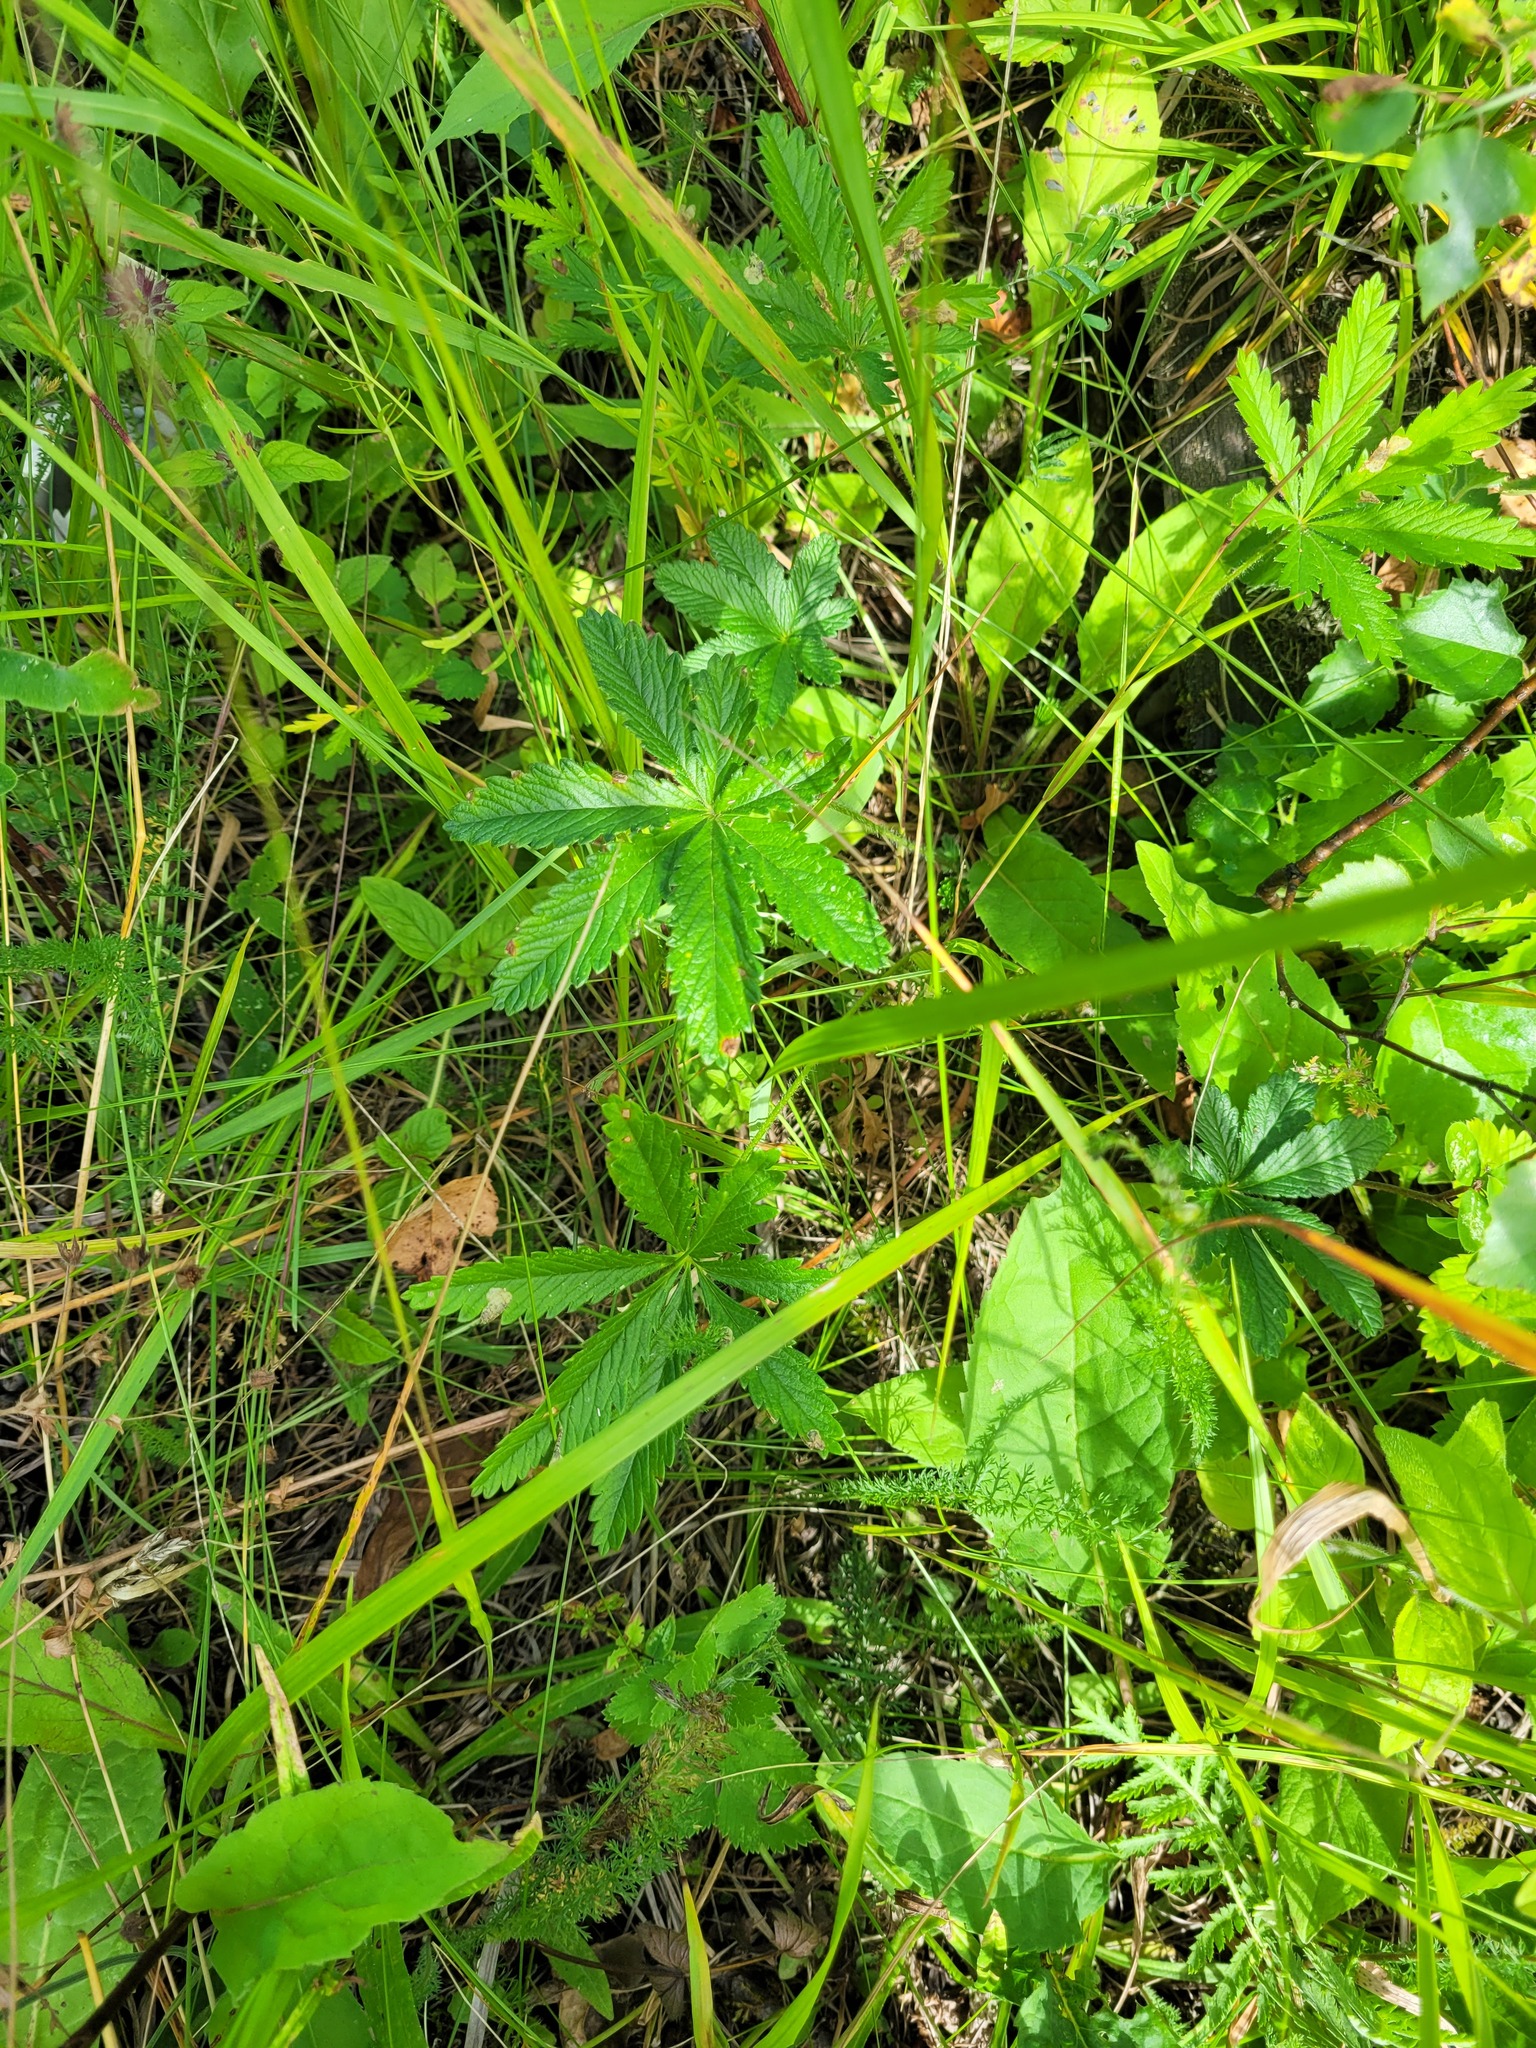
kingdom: Plantae
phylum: Tracheophyta
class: Magnoliopsida
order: Rosales
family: Rosaceae
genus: Potentilla
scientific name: Potentilla thuringiaca
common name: European cinquefoil
